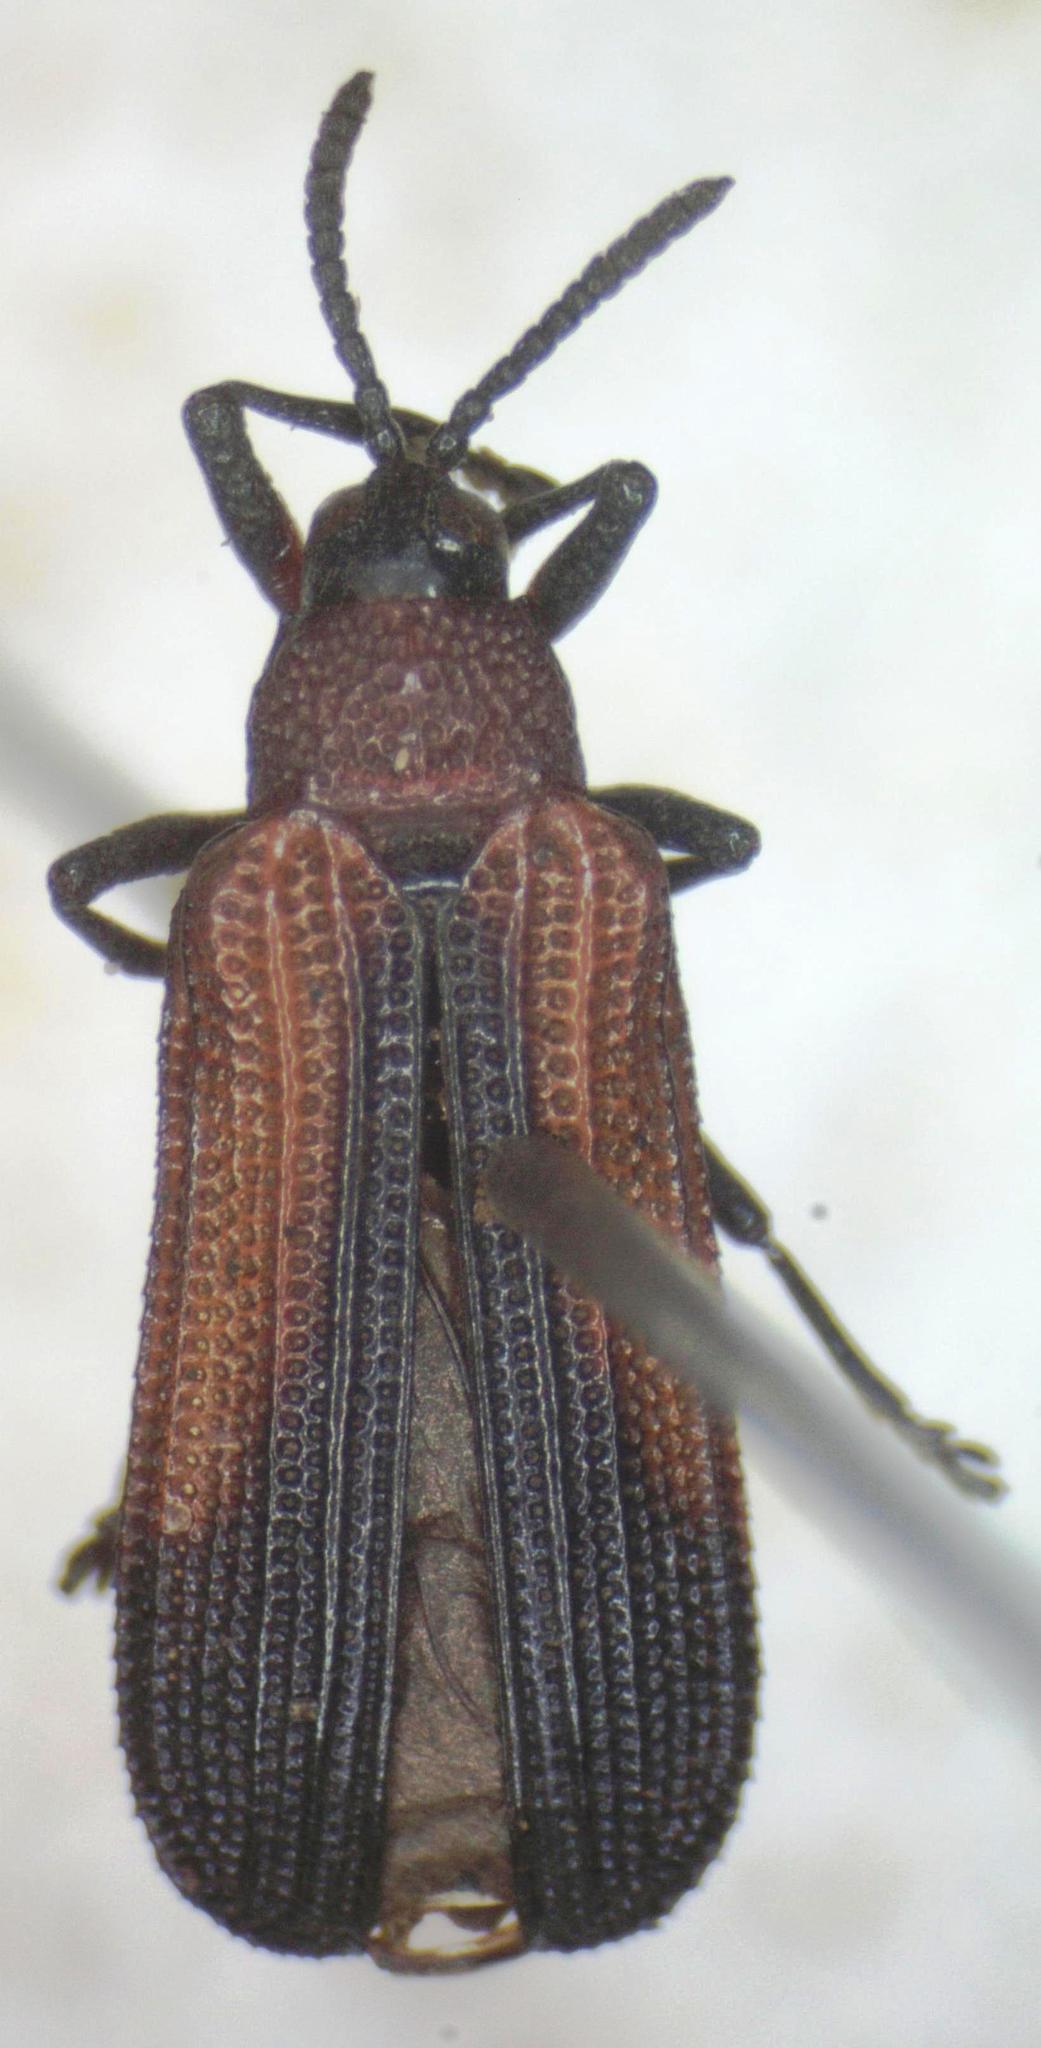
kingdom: Animalia
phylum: Arthropoda
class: Insecta
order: Coleoptera
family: Chrysomelidae
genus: Chalepus
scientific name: Chalepus similatus
